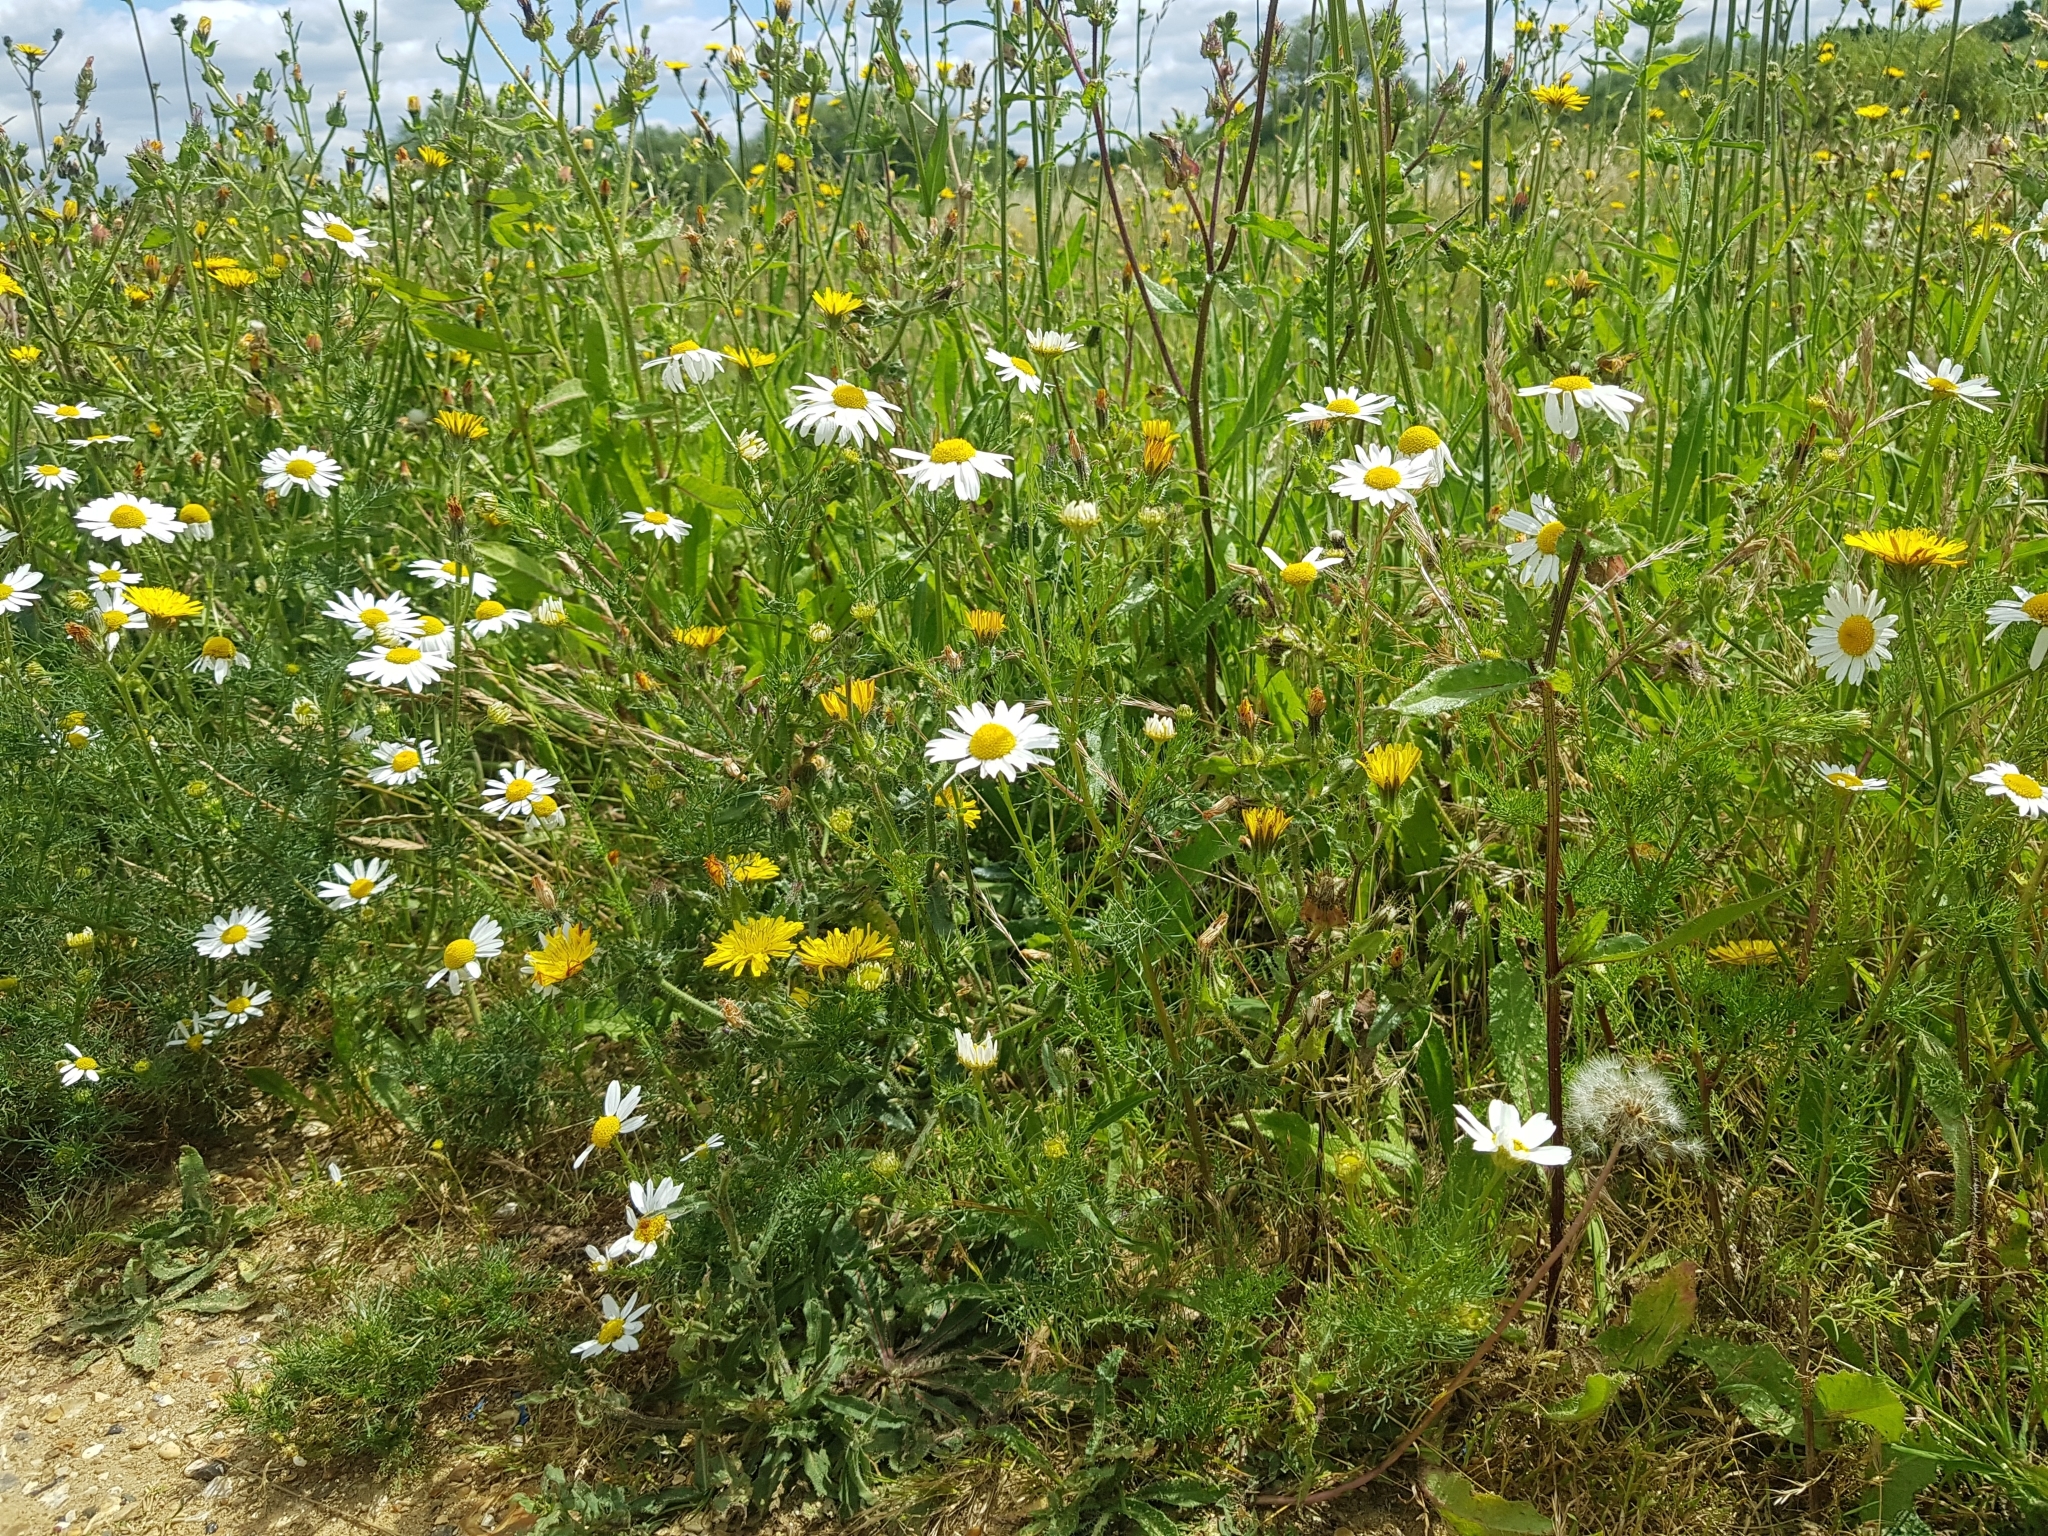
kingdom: Plantae
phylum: Tracheophyta
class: Magnoliopsida
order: Asterales
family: Asteraceae
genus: Tripleurospermum
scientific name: Tripleurospermum inodorum
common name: Scentless mayweed
